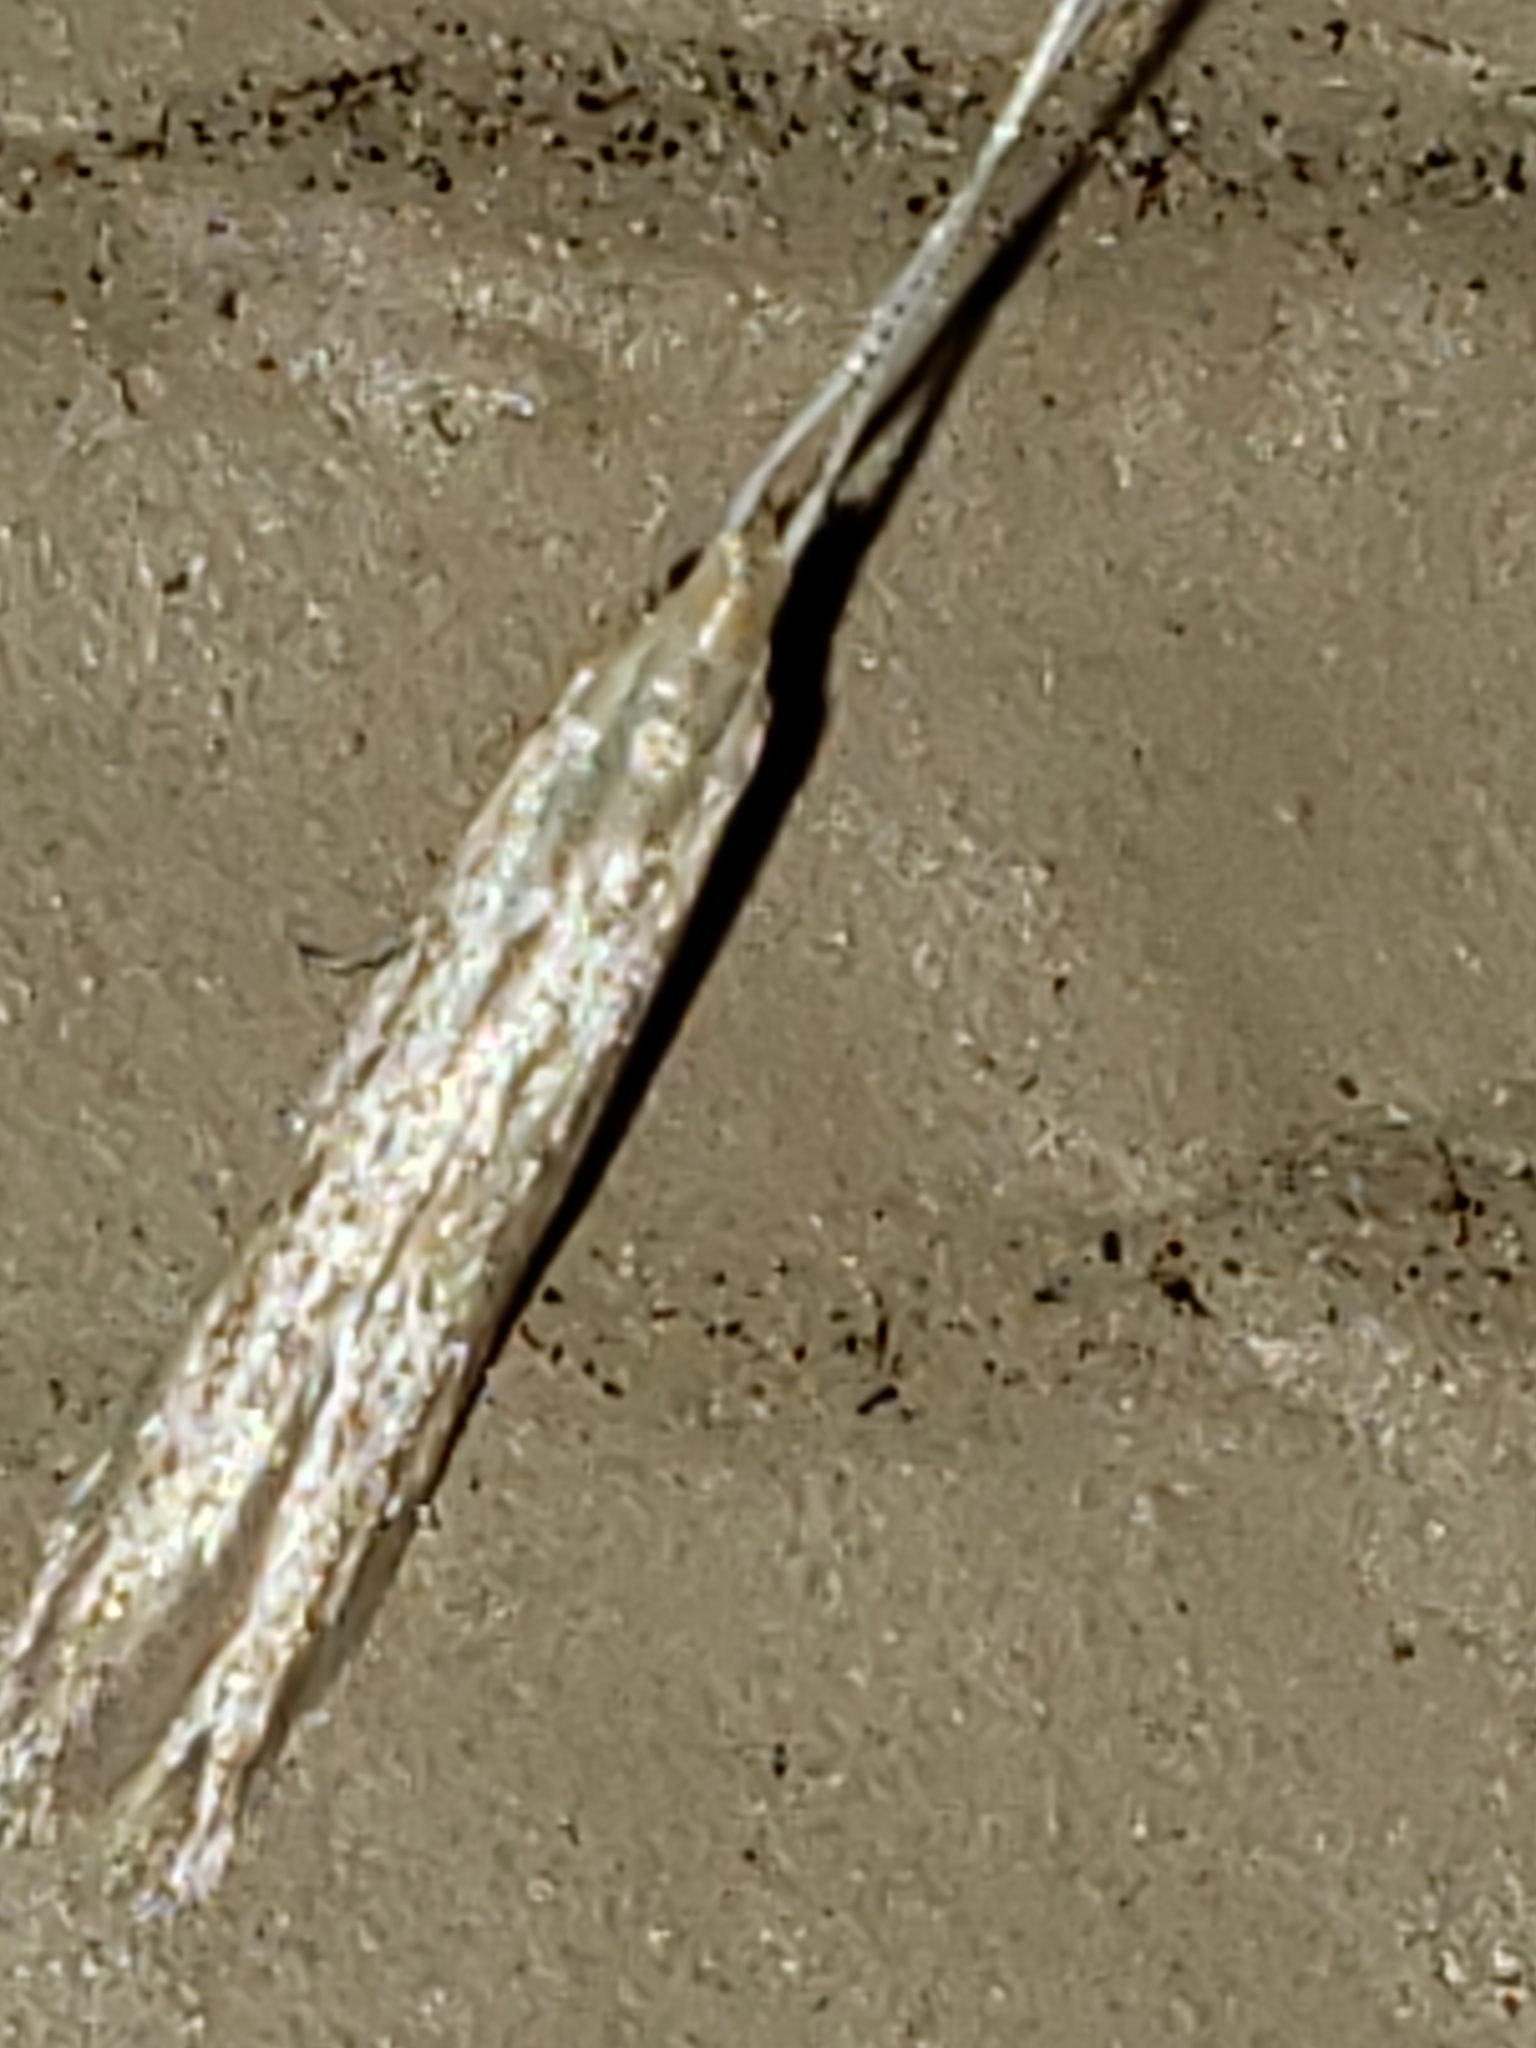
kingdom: Animalia
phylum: Arthropoda
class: Arachnida
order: Araneae
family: Tetragnathidae
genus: Leucauge
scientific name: Leucauge venusta
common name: Longjawed orb weavers
